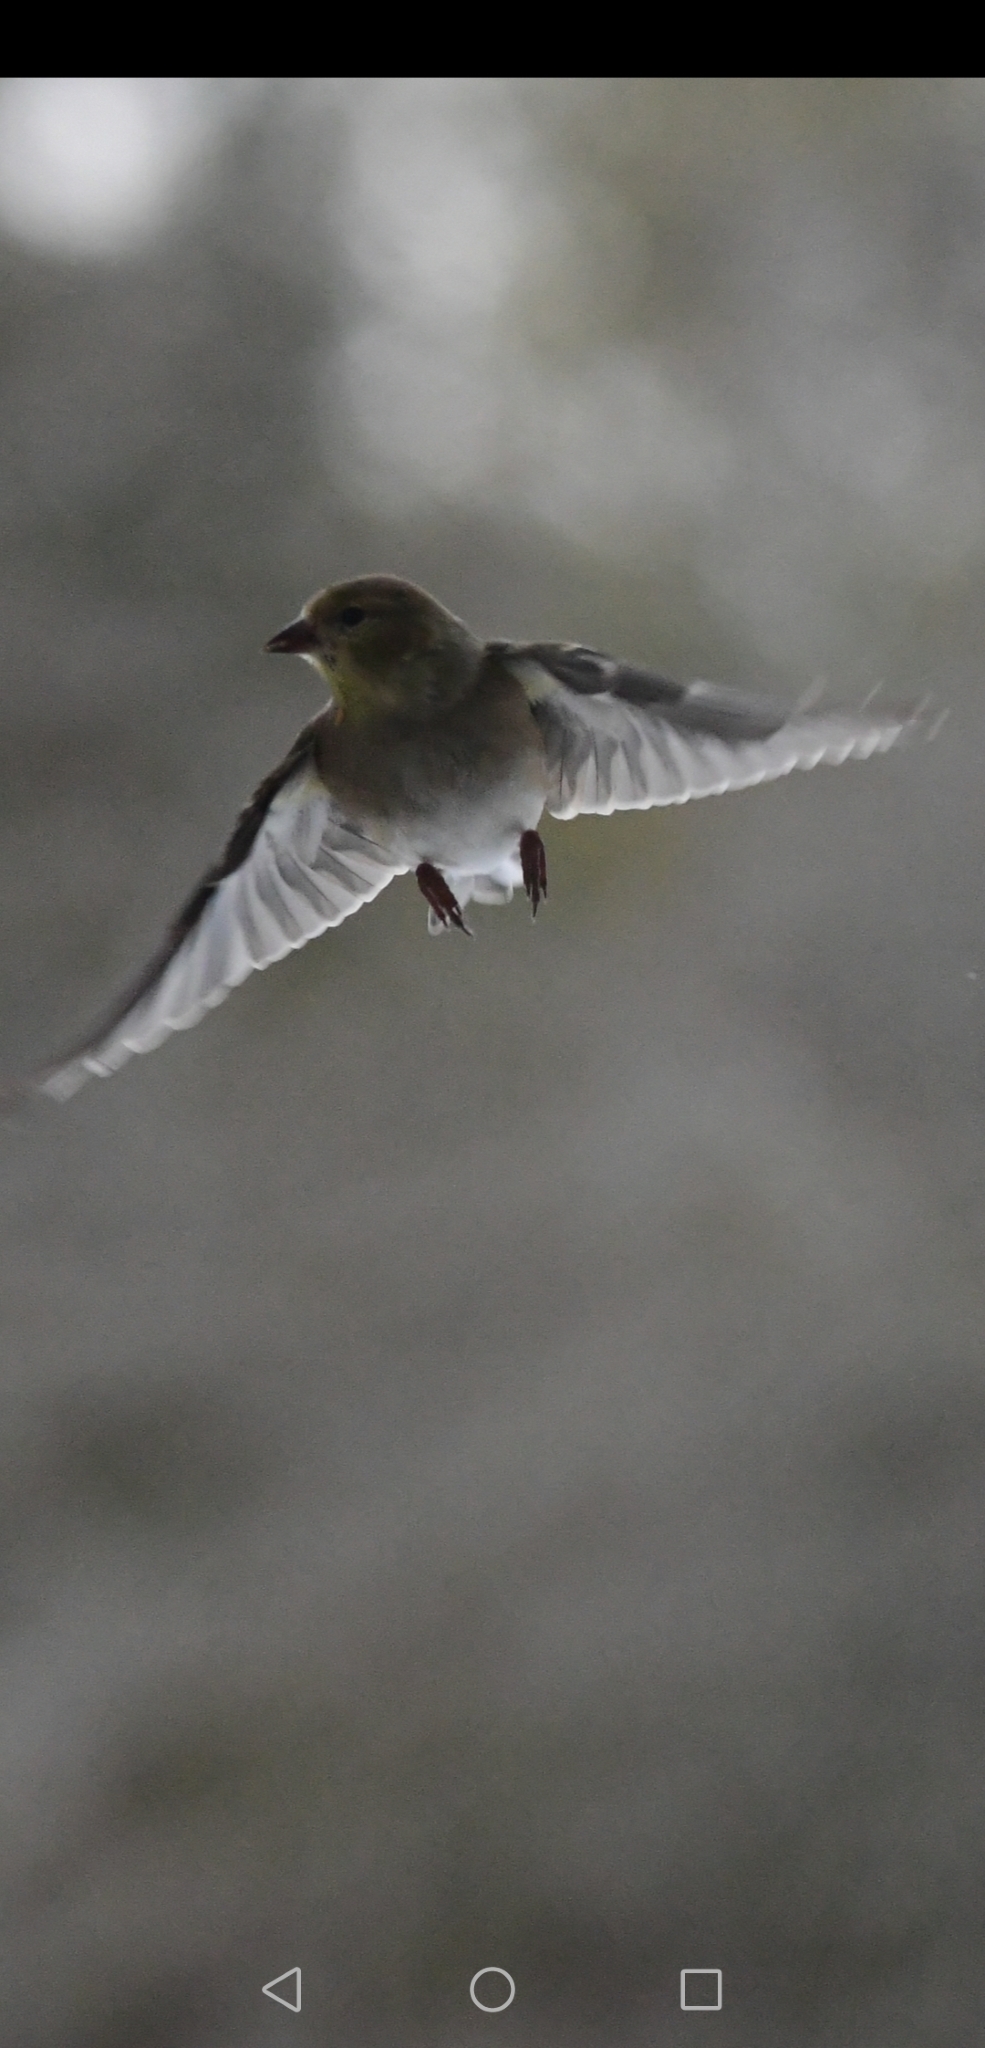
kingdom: Animalia
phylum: Chordata
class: Aves
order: Passeriformes
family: Fringillidae
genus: Spinus
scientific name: Spinus tristis
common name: American goldfinch
